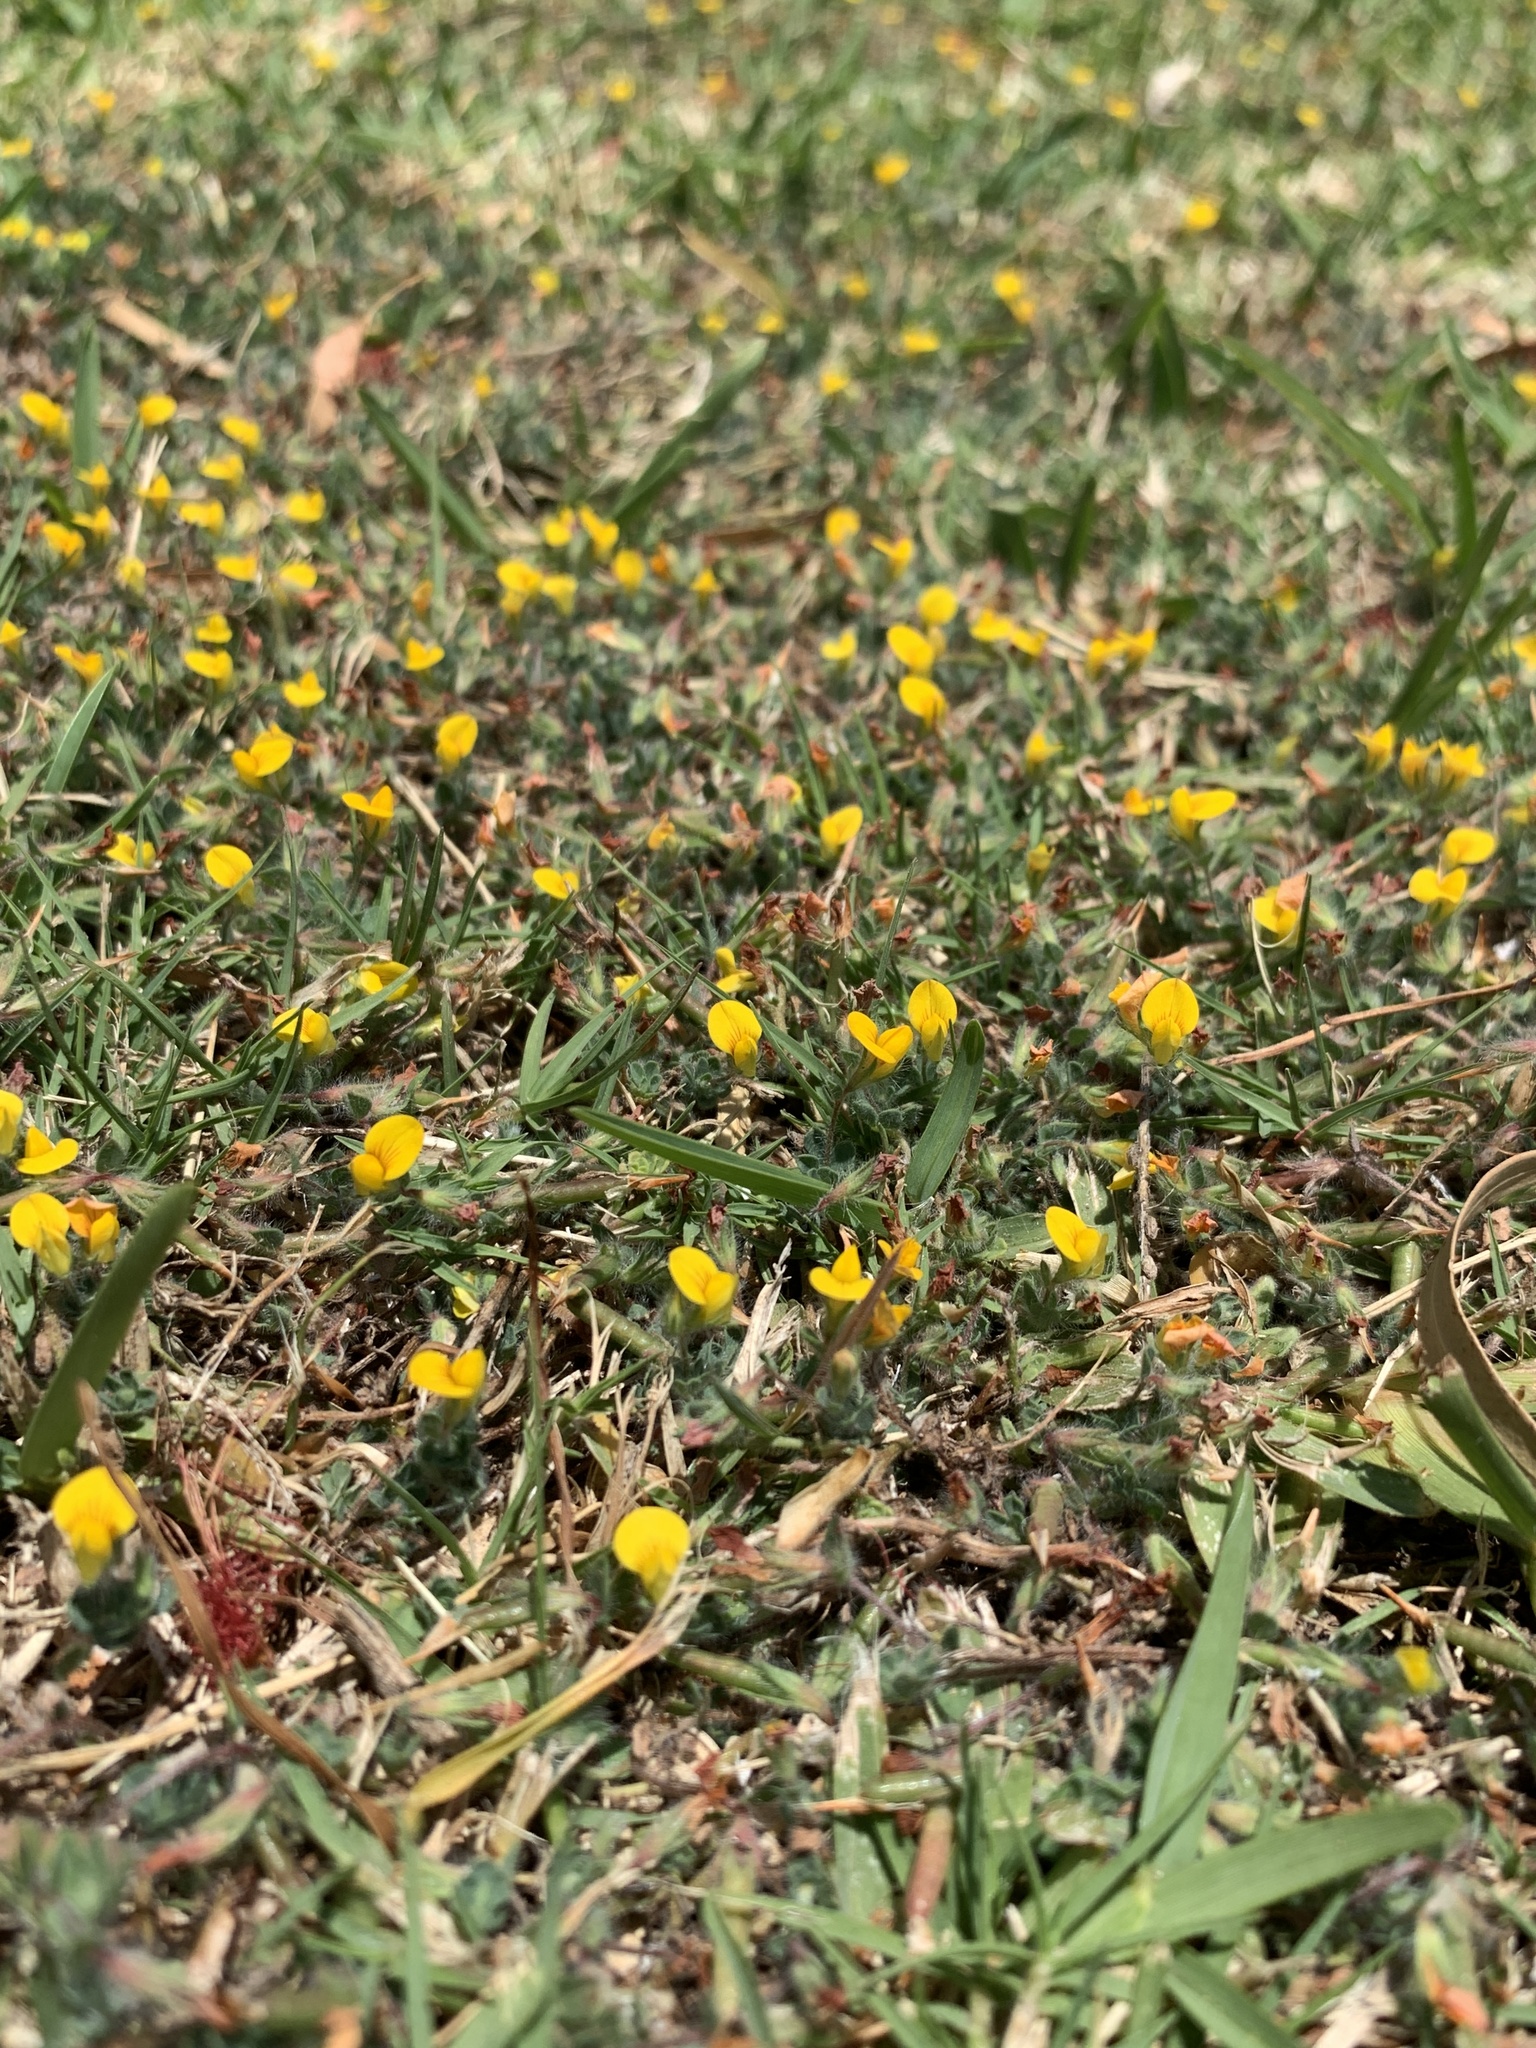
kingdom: Plantae
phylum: Tracheophyta
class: Magnoliopsida
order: Fabales
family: Fabaceae
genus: Lotus
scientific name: Lotus subbiflorus
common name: Hairy bird's-foot trefoil
